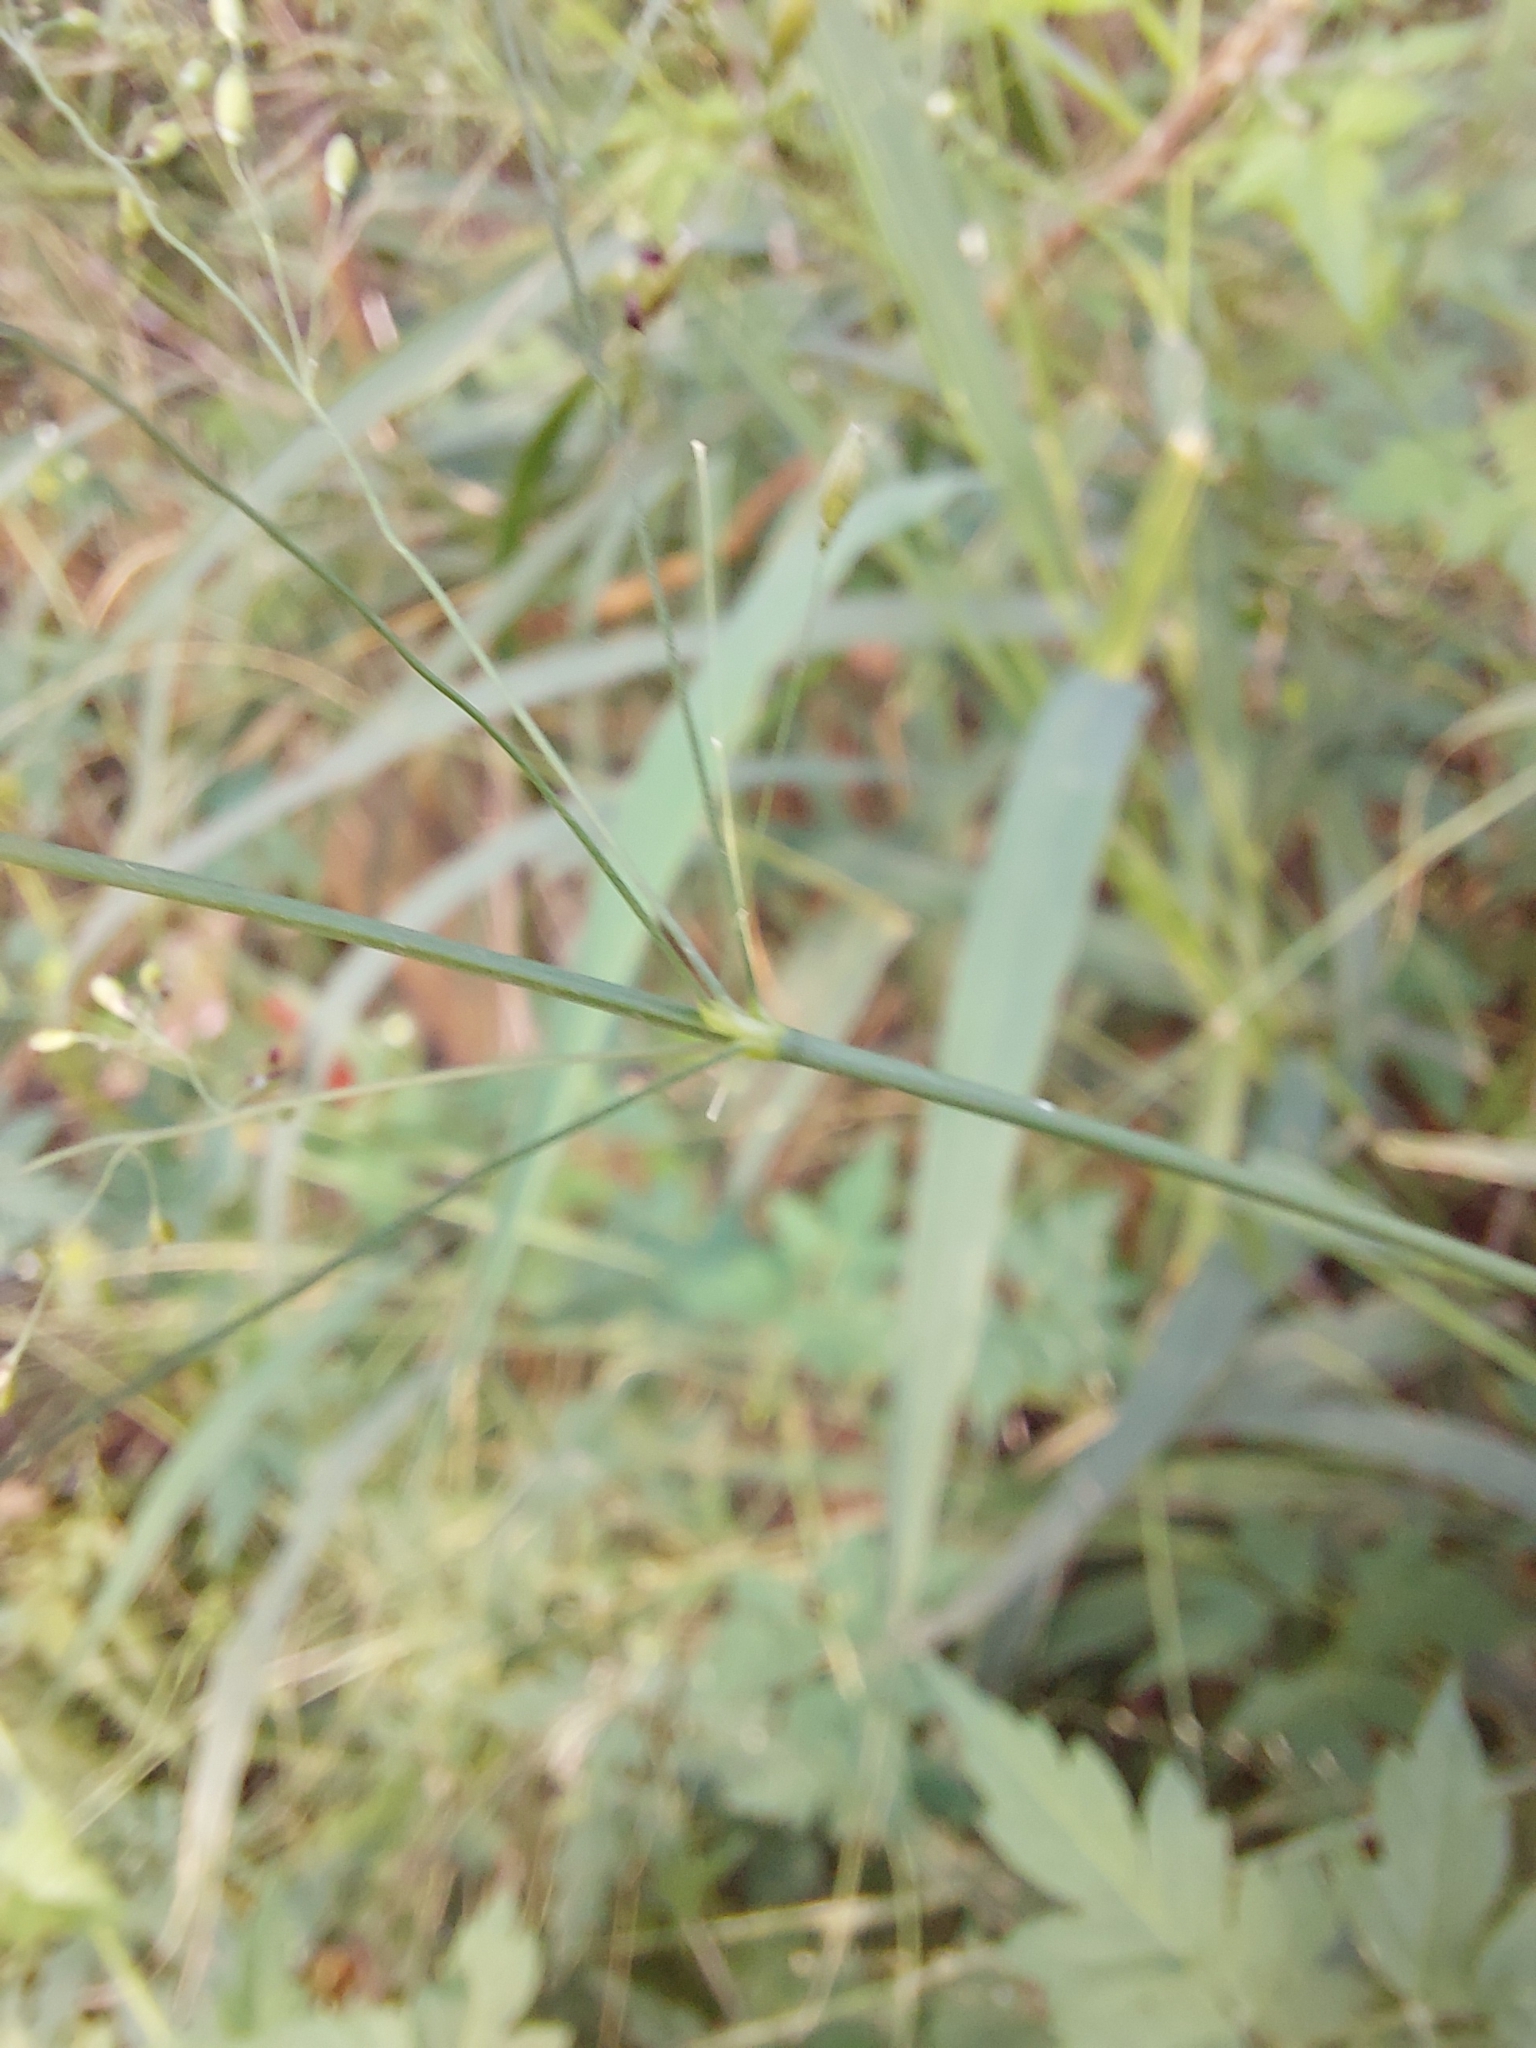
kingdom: Plantae
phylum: Tracheophyta
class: Liliopsida
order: Poales
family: Poaceae
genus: Megathyrsus
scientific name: Megathyrsus maximus
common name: Guineagrass
